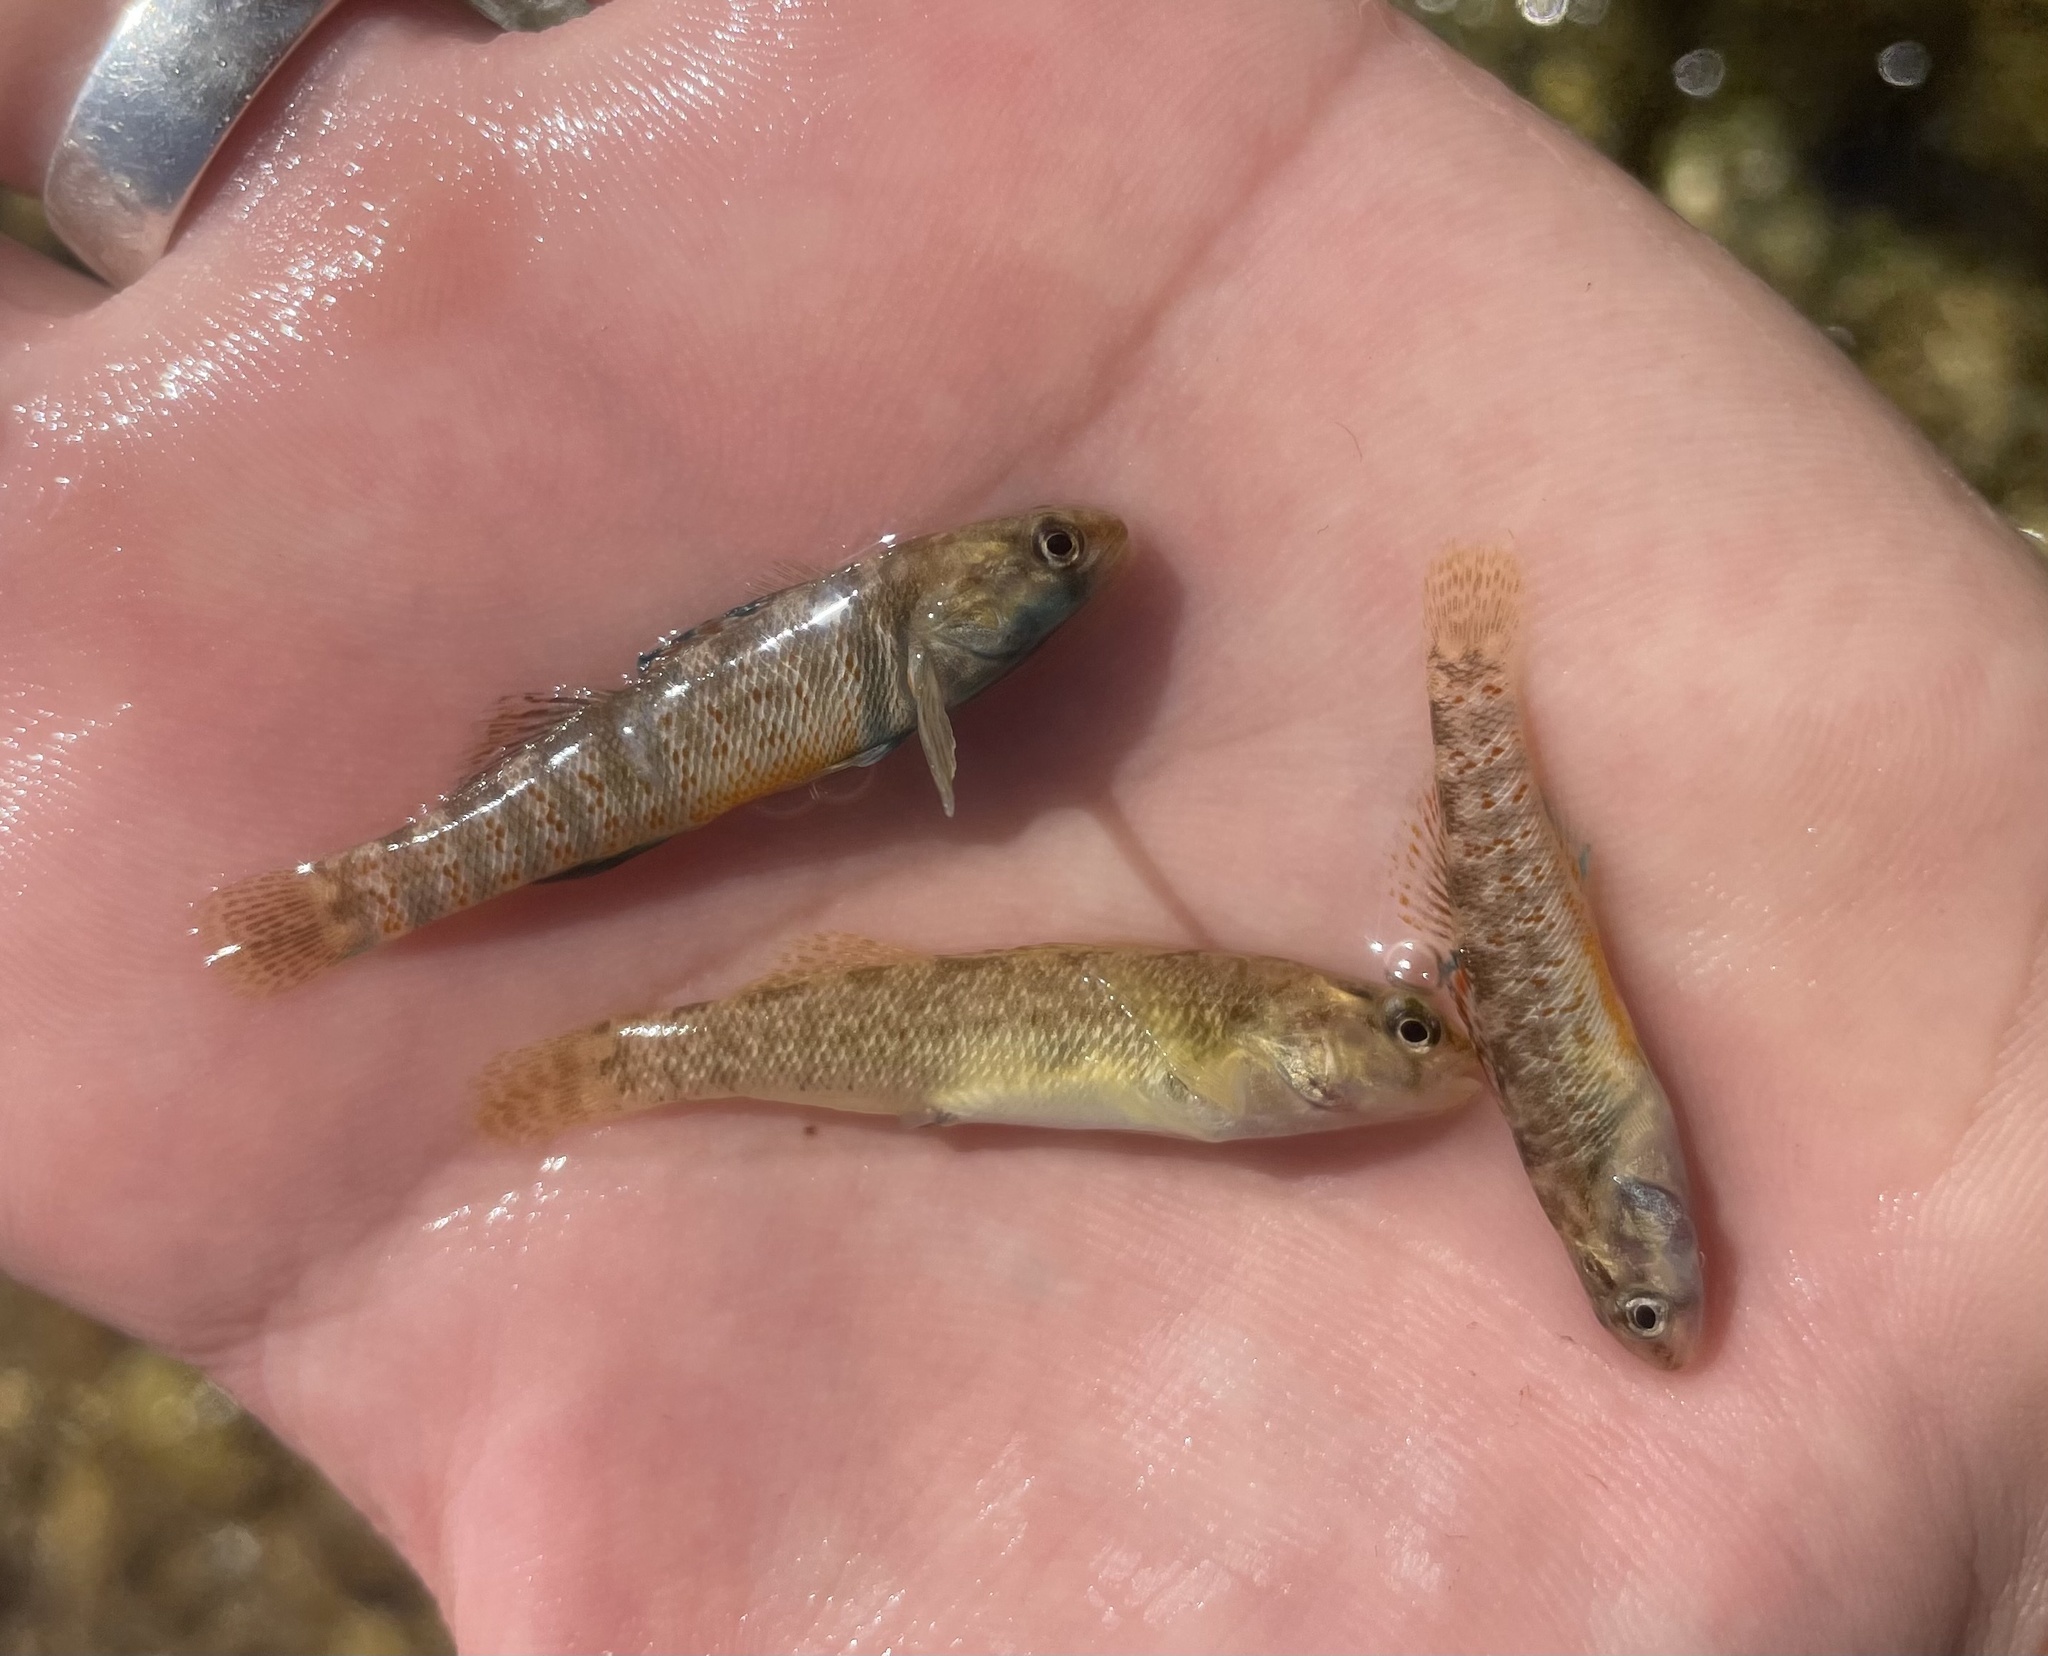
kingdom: Animalia
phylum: Chordata
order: Perciformes
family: Percidae
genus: Etheostoma
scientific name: Etheostoma lepidum
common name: Greenthroat darter
